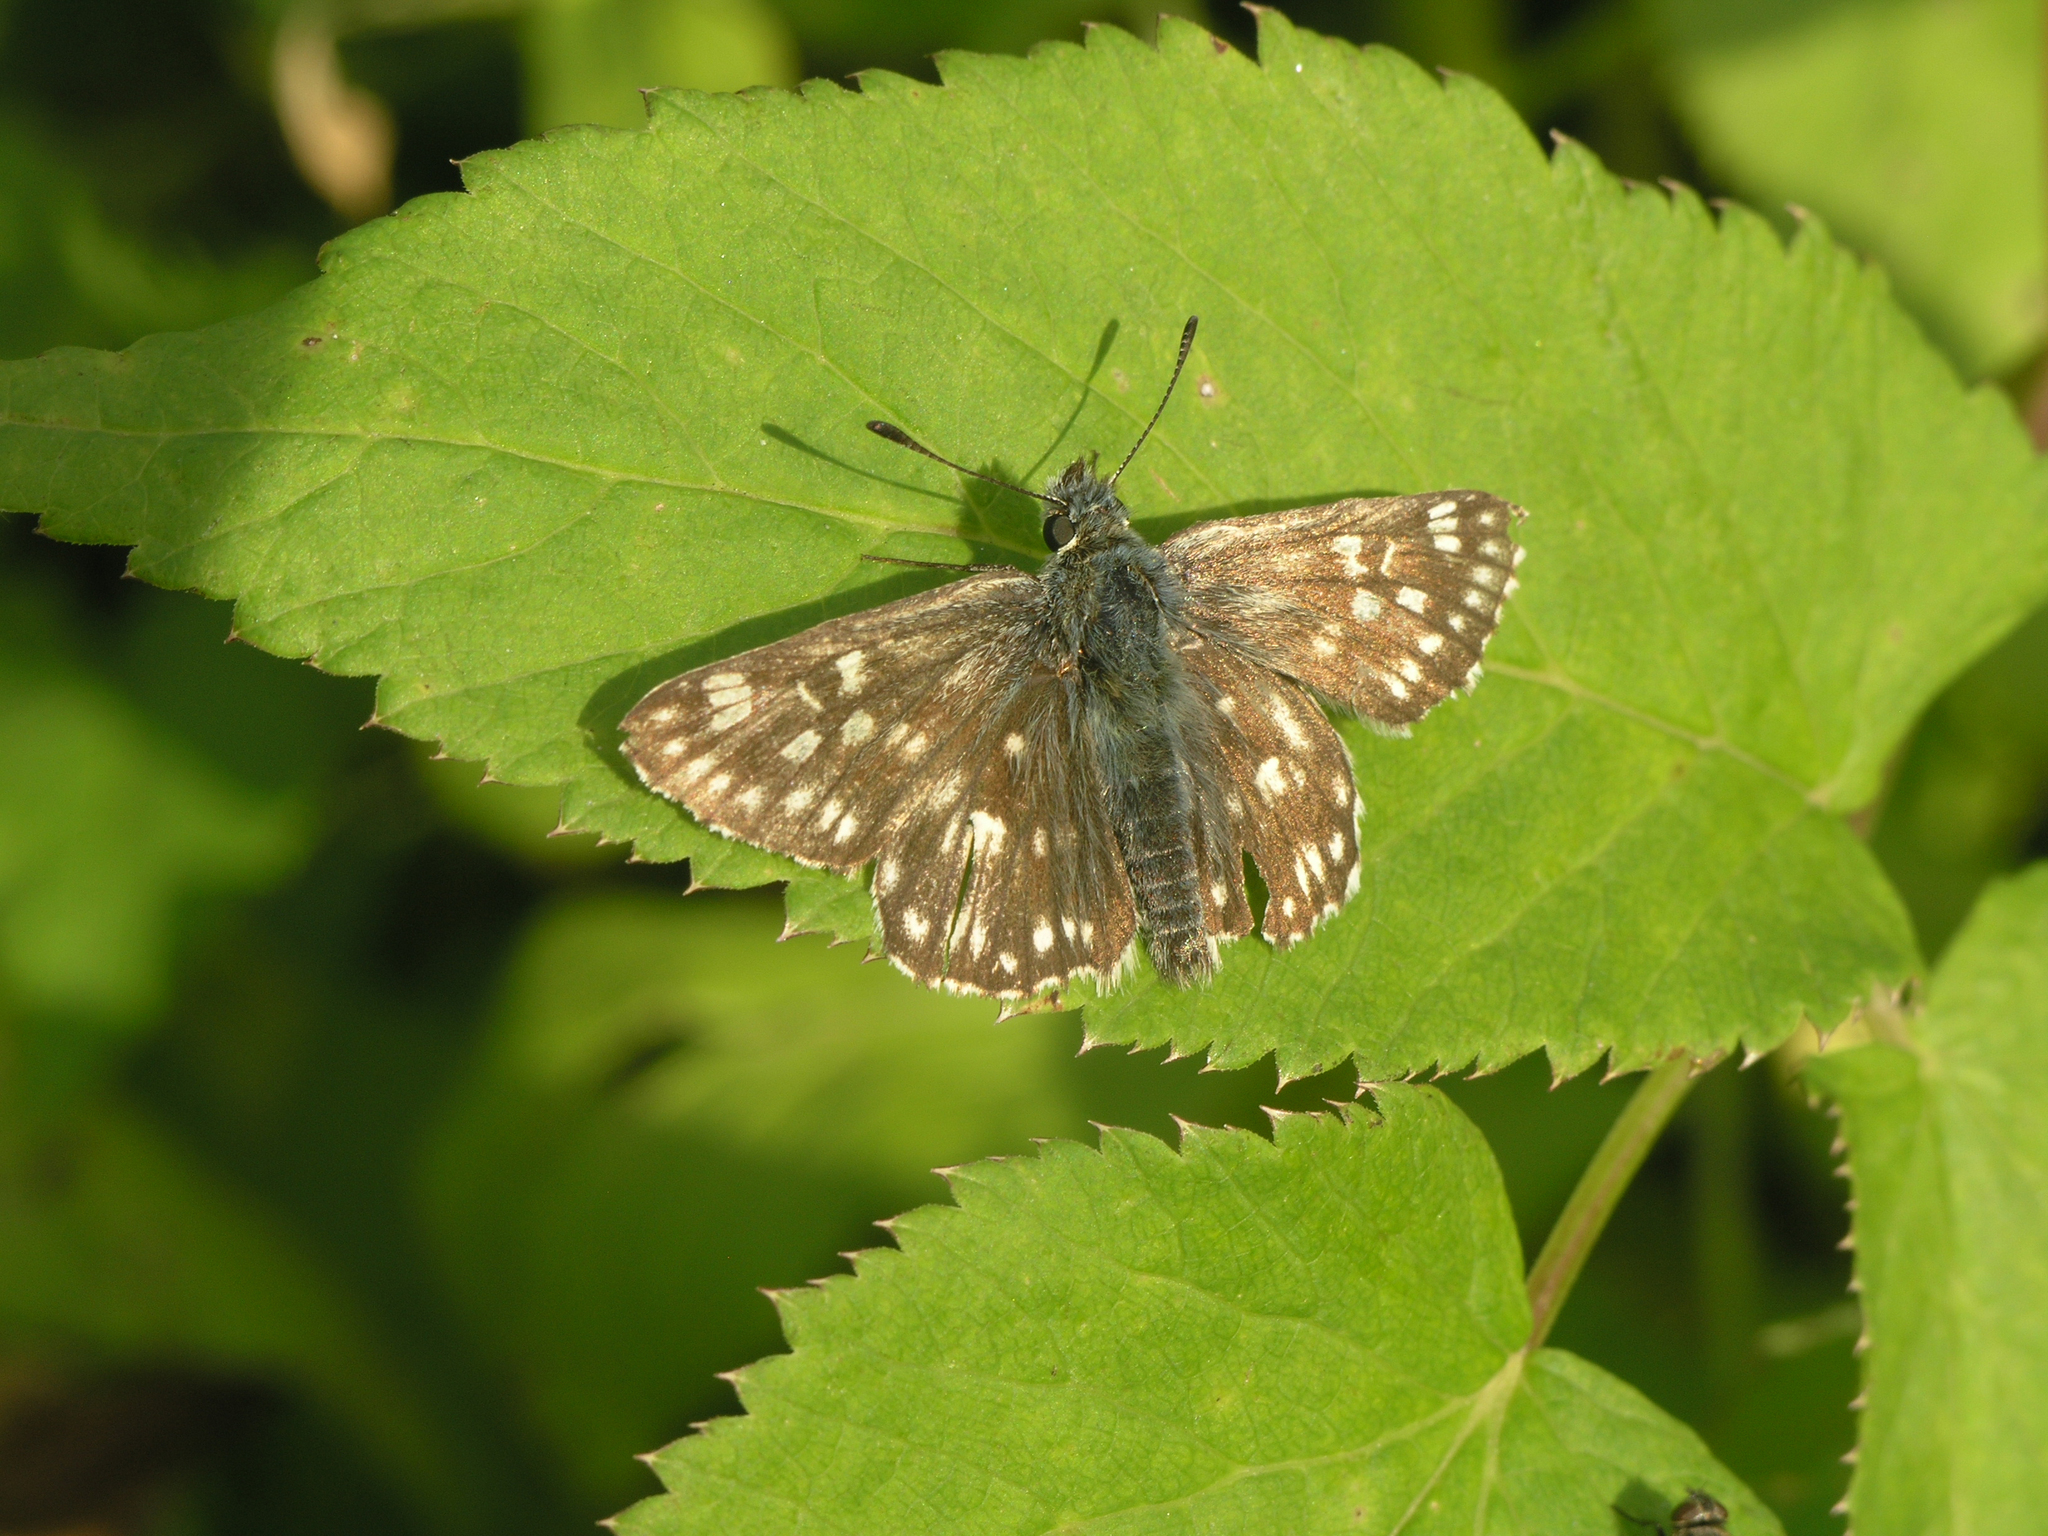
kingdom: Animalia
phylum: Arthropoda
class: Insecta
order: Lepidoptera
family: Hesperiidae
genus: Syrichtus
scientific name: Syrichtus tessellum
